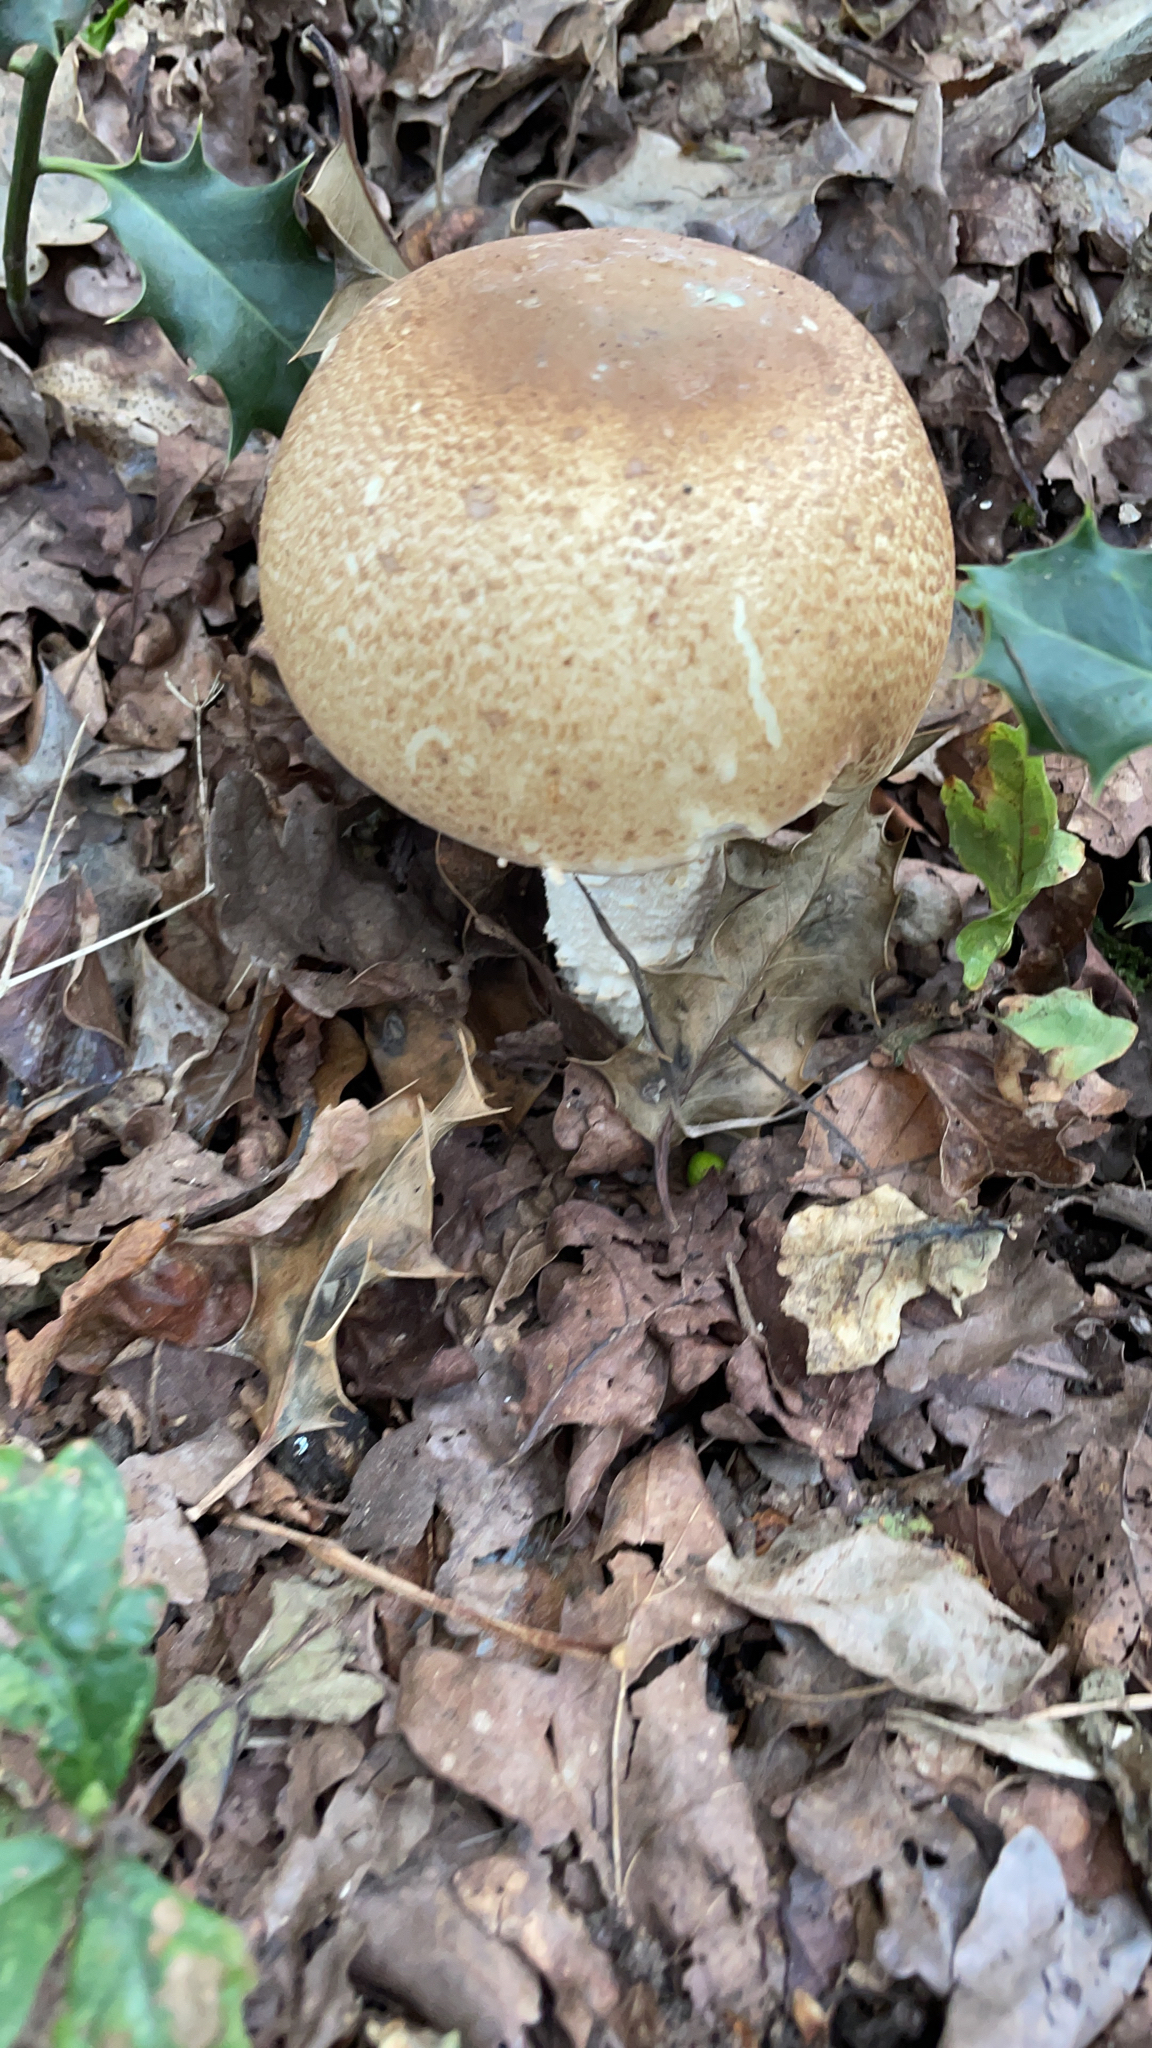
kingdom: Fungi
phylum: Basidiomycota
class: Agaricomycetes
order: Agaricales
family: Agaricaceae
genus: Agaricus
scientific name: Agaricus augustus
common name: Prince
